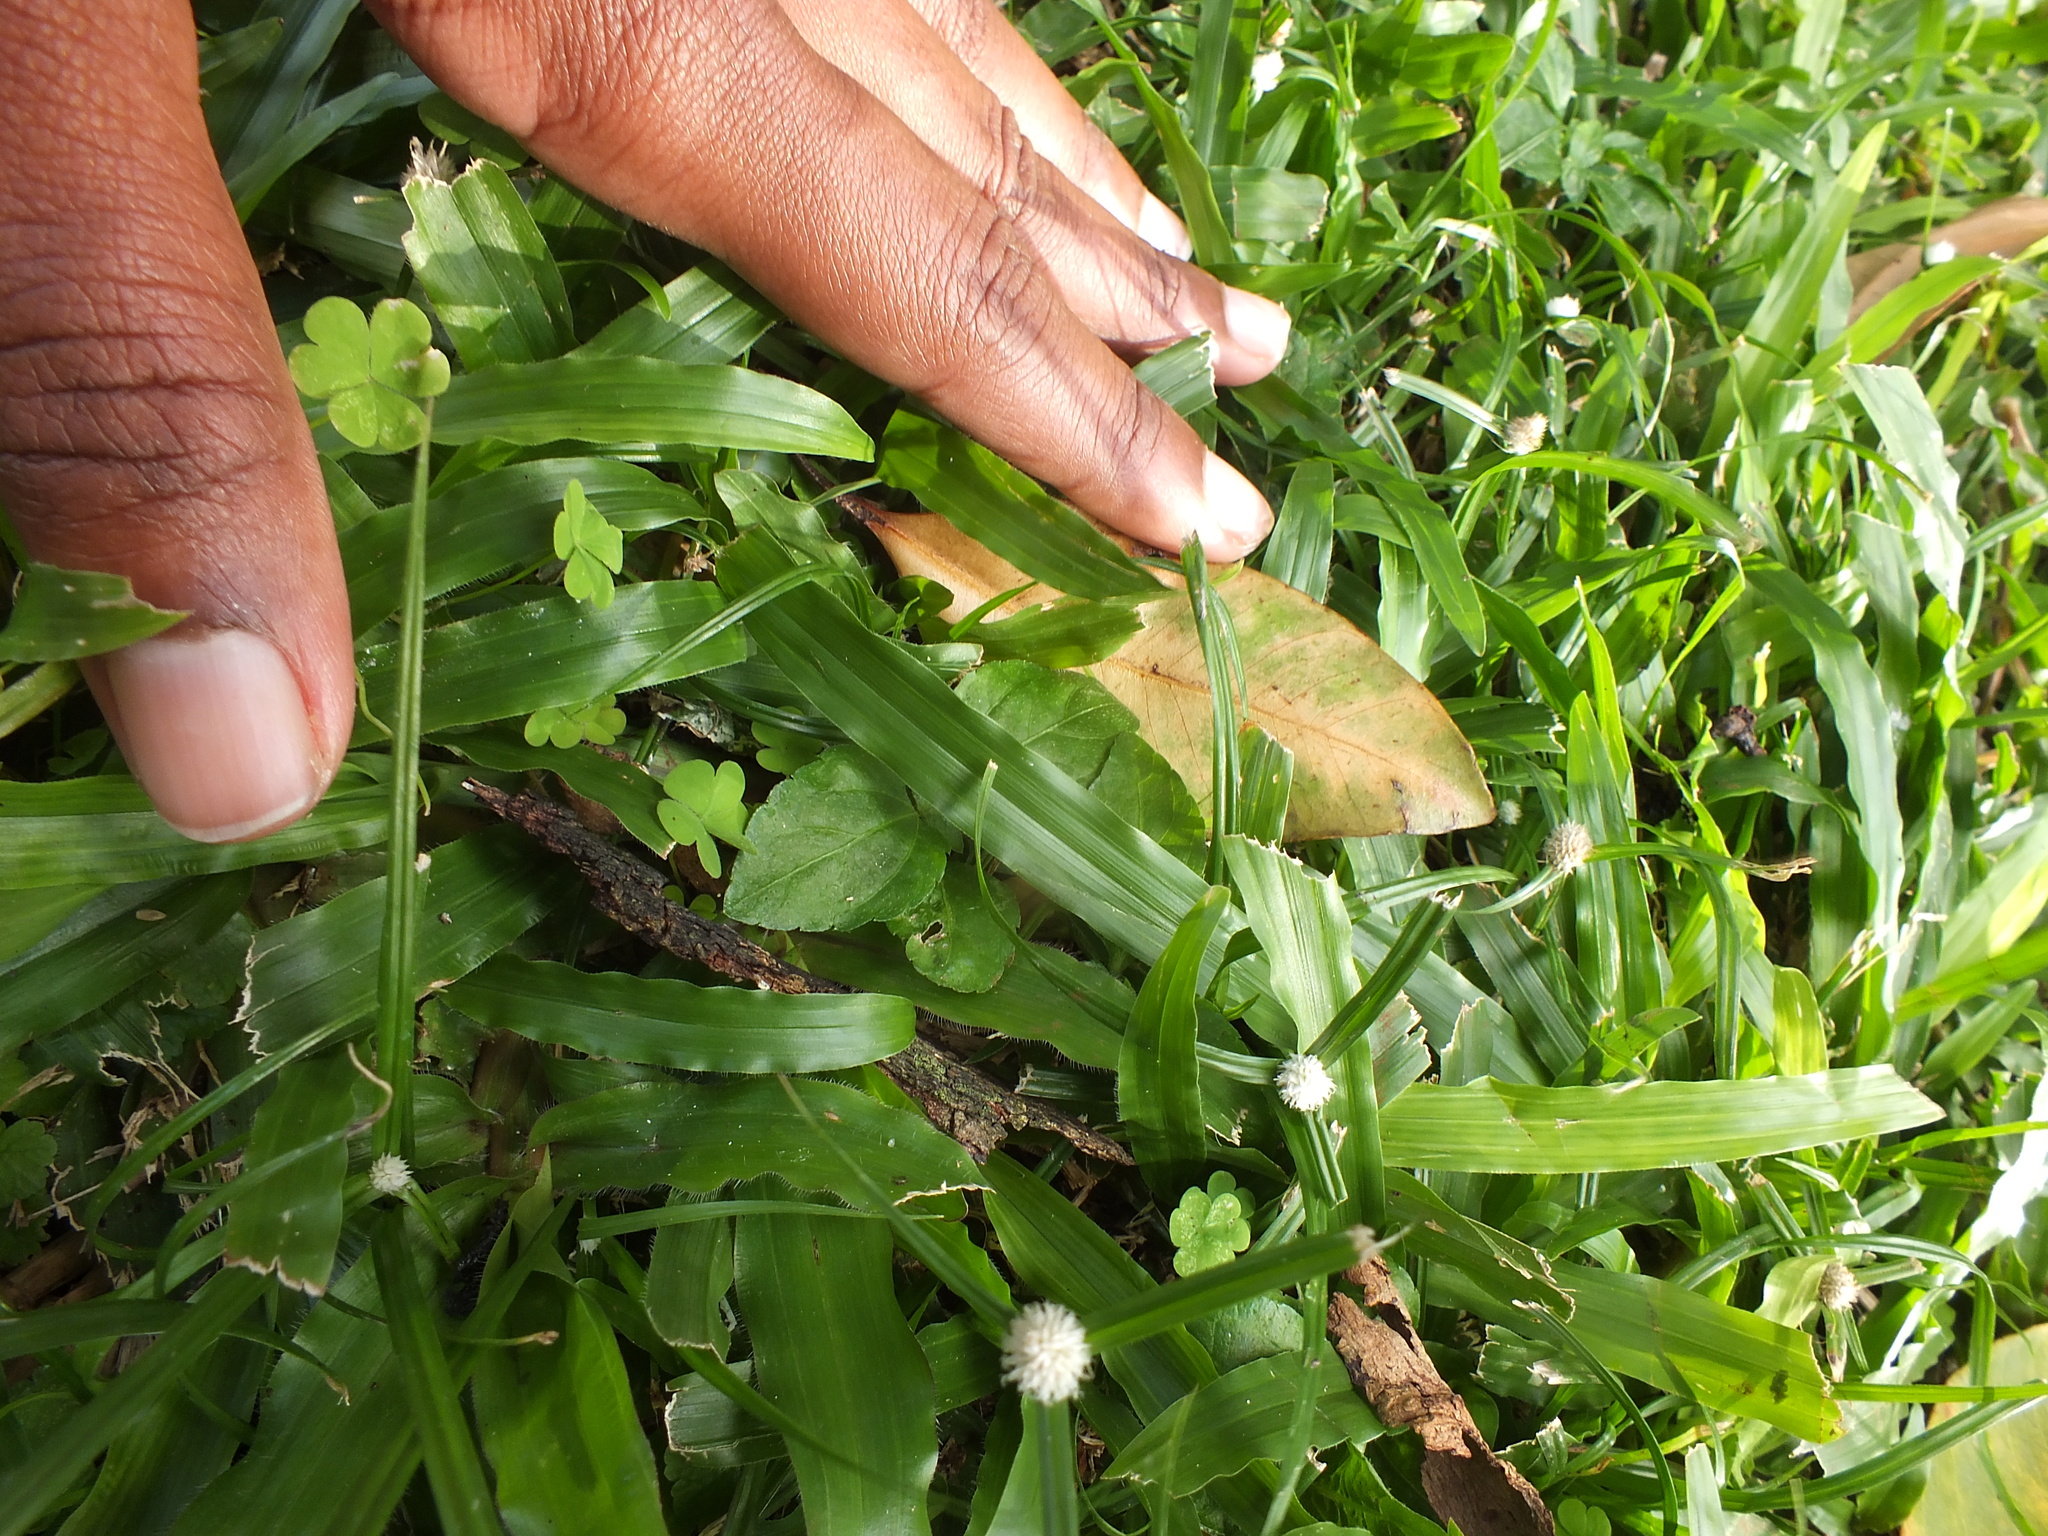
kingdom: Plantae
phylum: Tracheophyta
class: Liliopsida
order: Poales
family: Cyperaceae
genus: Cyperus
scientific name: Cyperus mindorensis
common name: Flatsedge
